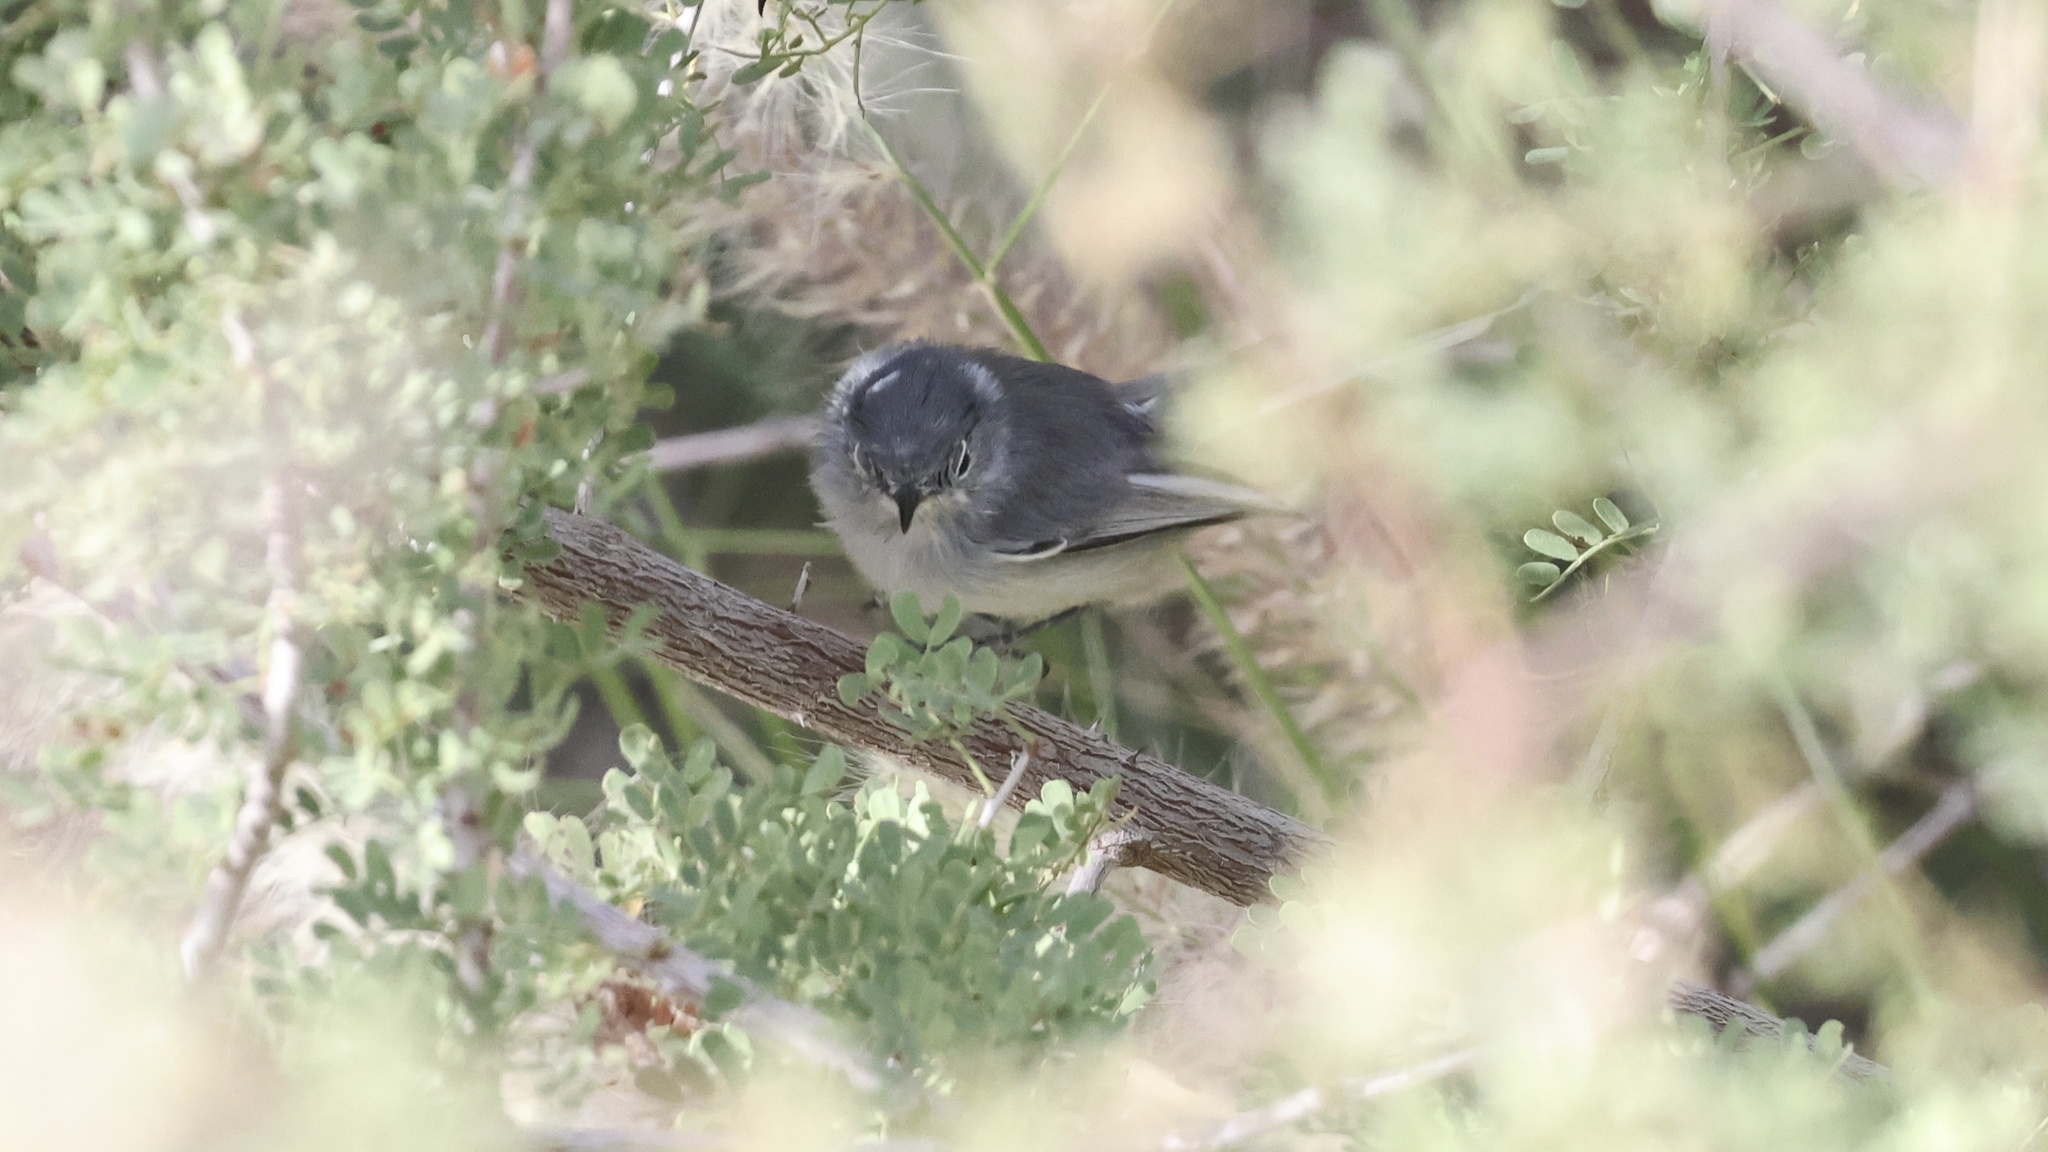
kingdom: Animalia
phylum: Chordata
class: Aves
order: Passeriformes
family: Polioptilidae
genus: Polioptila
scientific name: Polioptila melanura
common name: Black-tailed gnatcatcher
